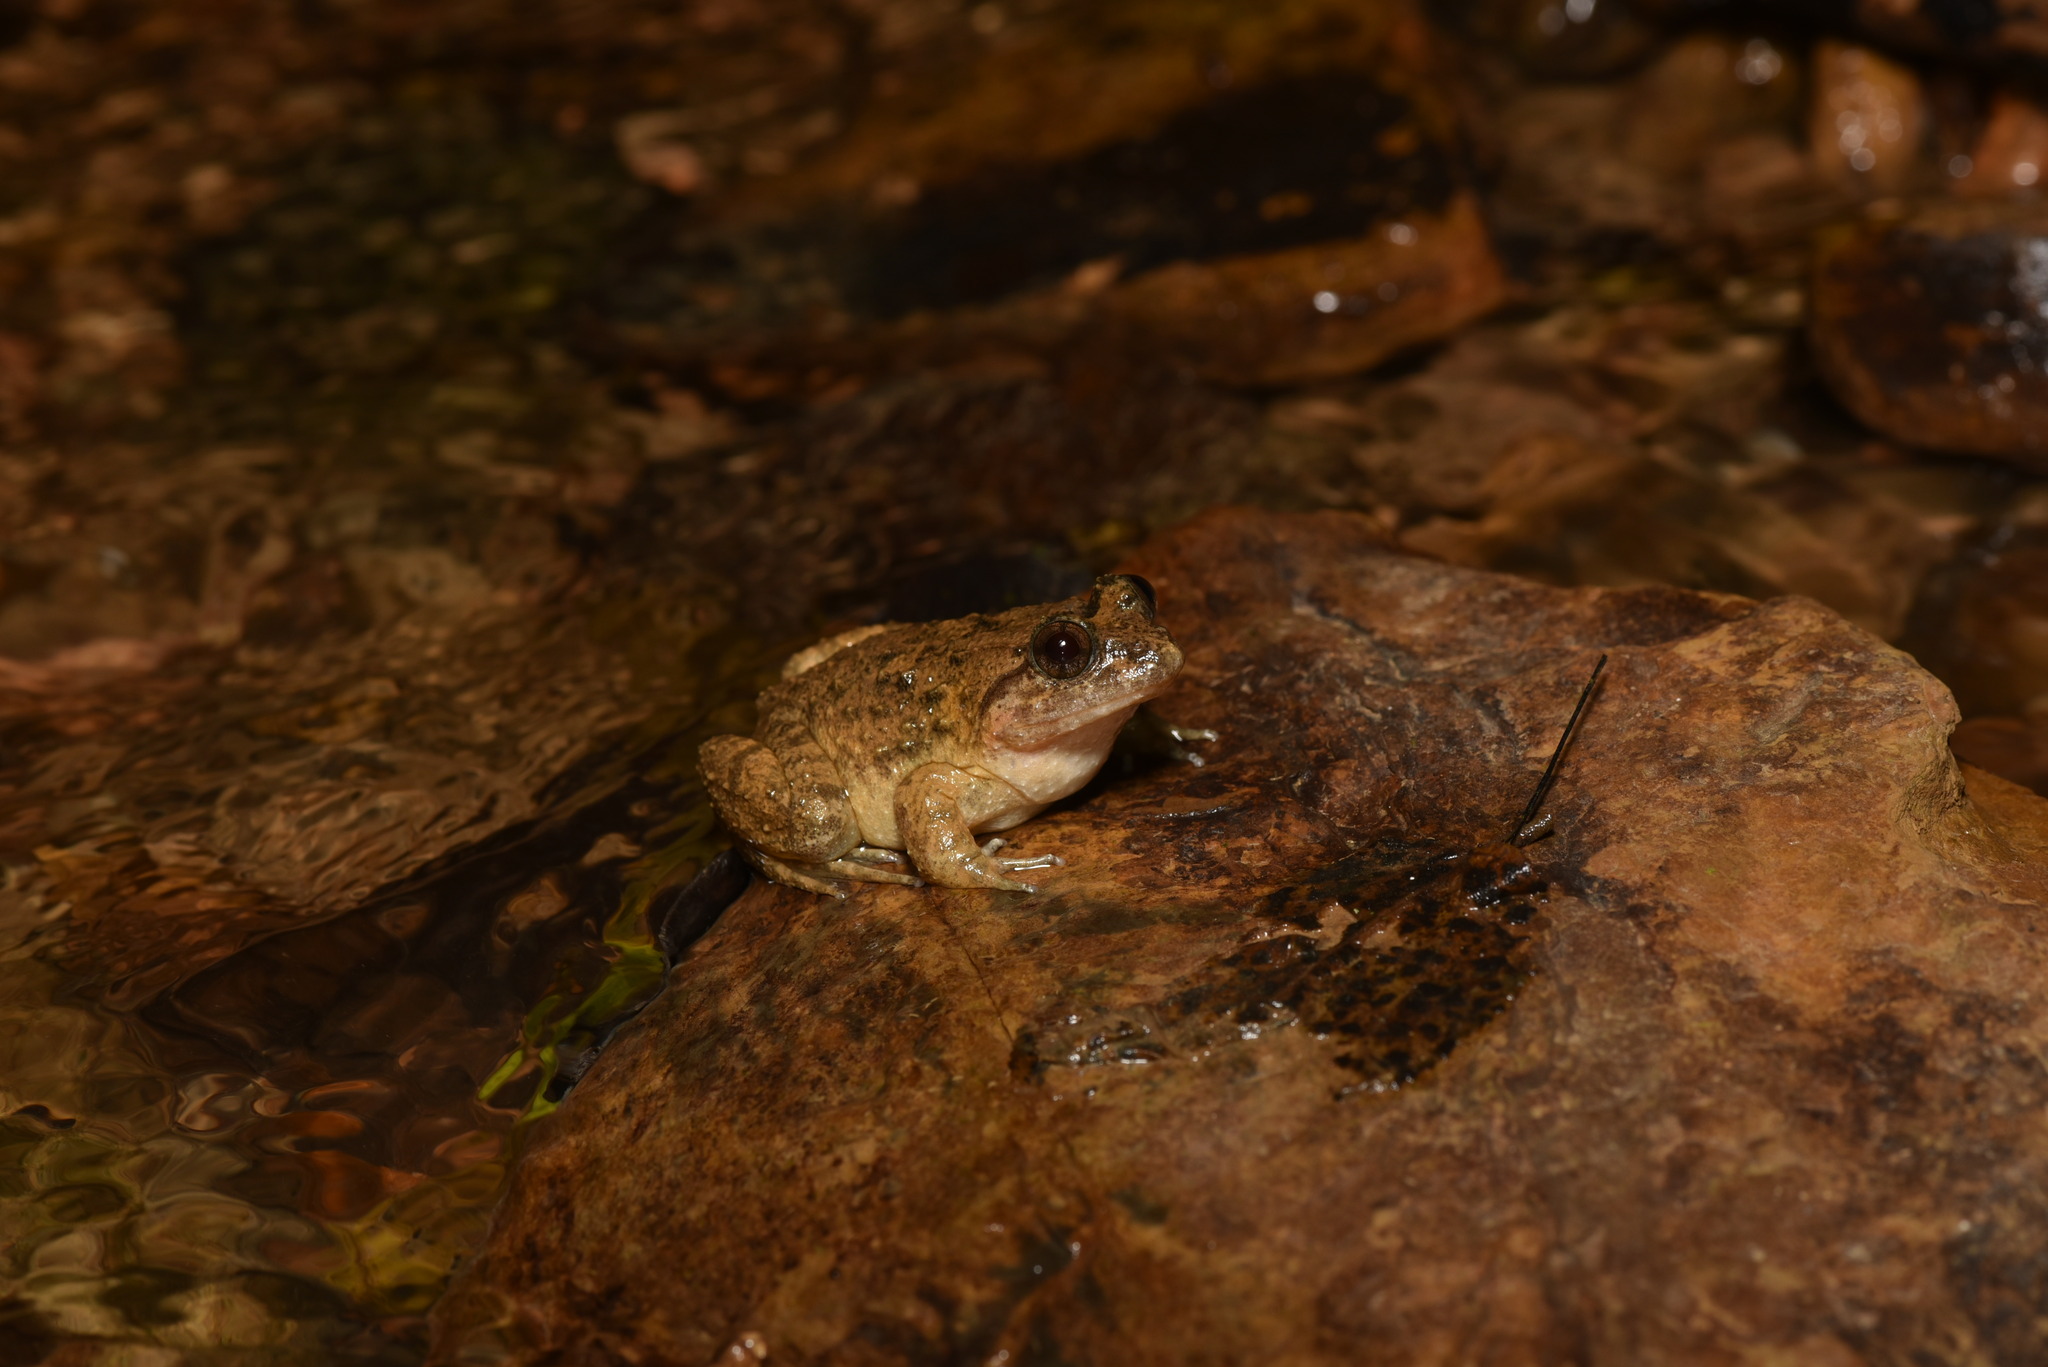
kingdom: Animalia
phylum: Chordata
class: Amphibia
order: Anura
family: Dicroglossidae
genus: Limnonectes
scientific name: Limnonectes fujianensis
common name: Fujian large-headed frog
